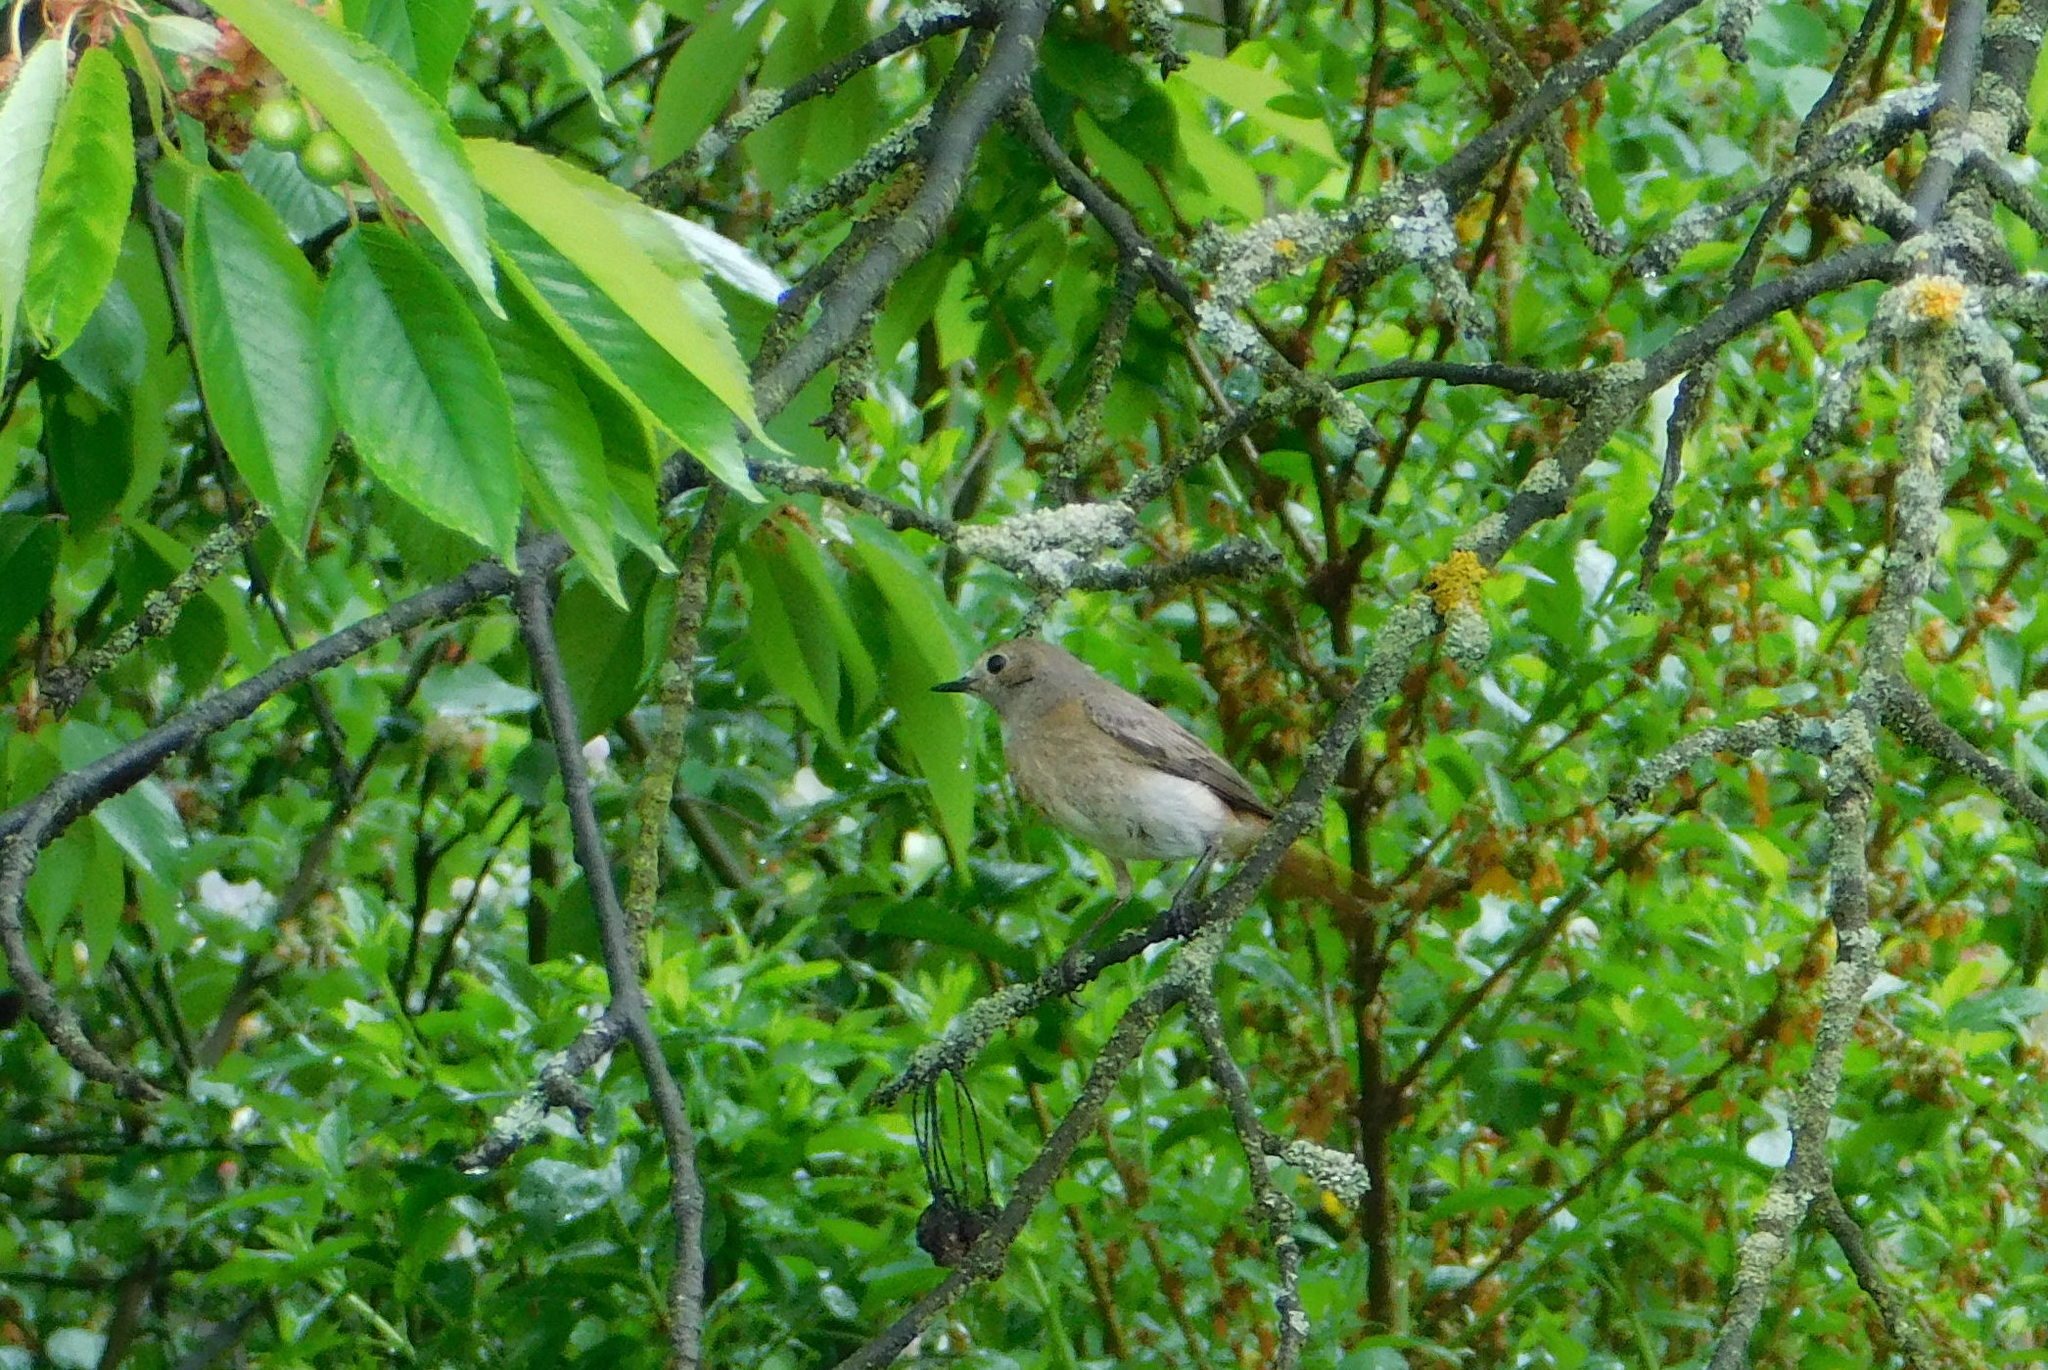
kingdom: Animalia
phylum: Chordata
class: Aves
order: Passeriformes
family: Muscicapidae
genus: Phoenicurus
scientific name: Phoenicurus phoenicurus
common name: Common redstart
